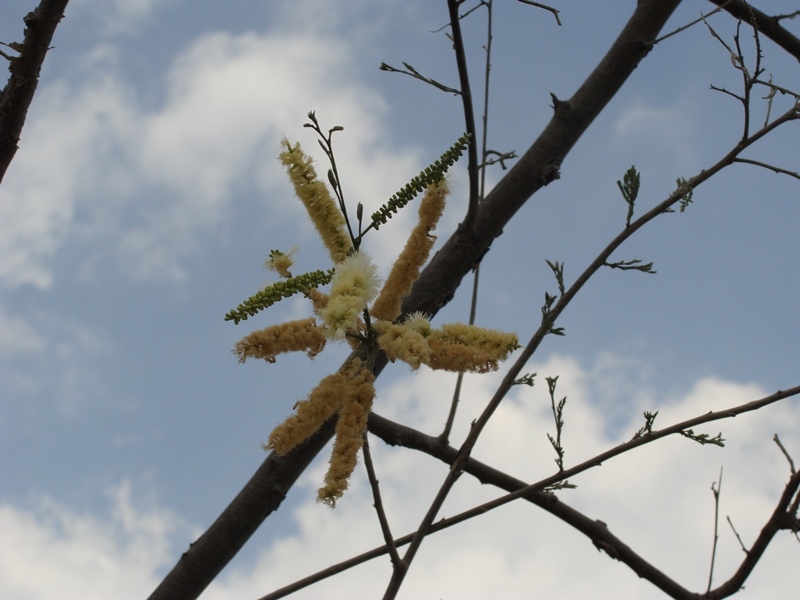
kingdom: Plantae
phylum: Tracheophyta
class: Magnoliopsida
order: Fabales
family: Fabaceae
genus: Mariosousa
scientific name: Mariosousa acatlensis
